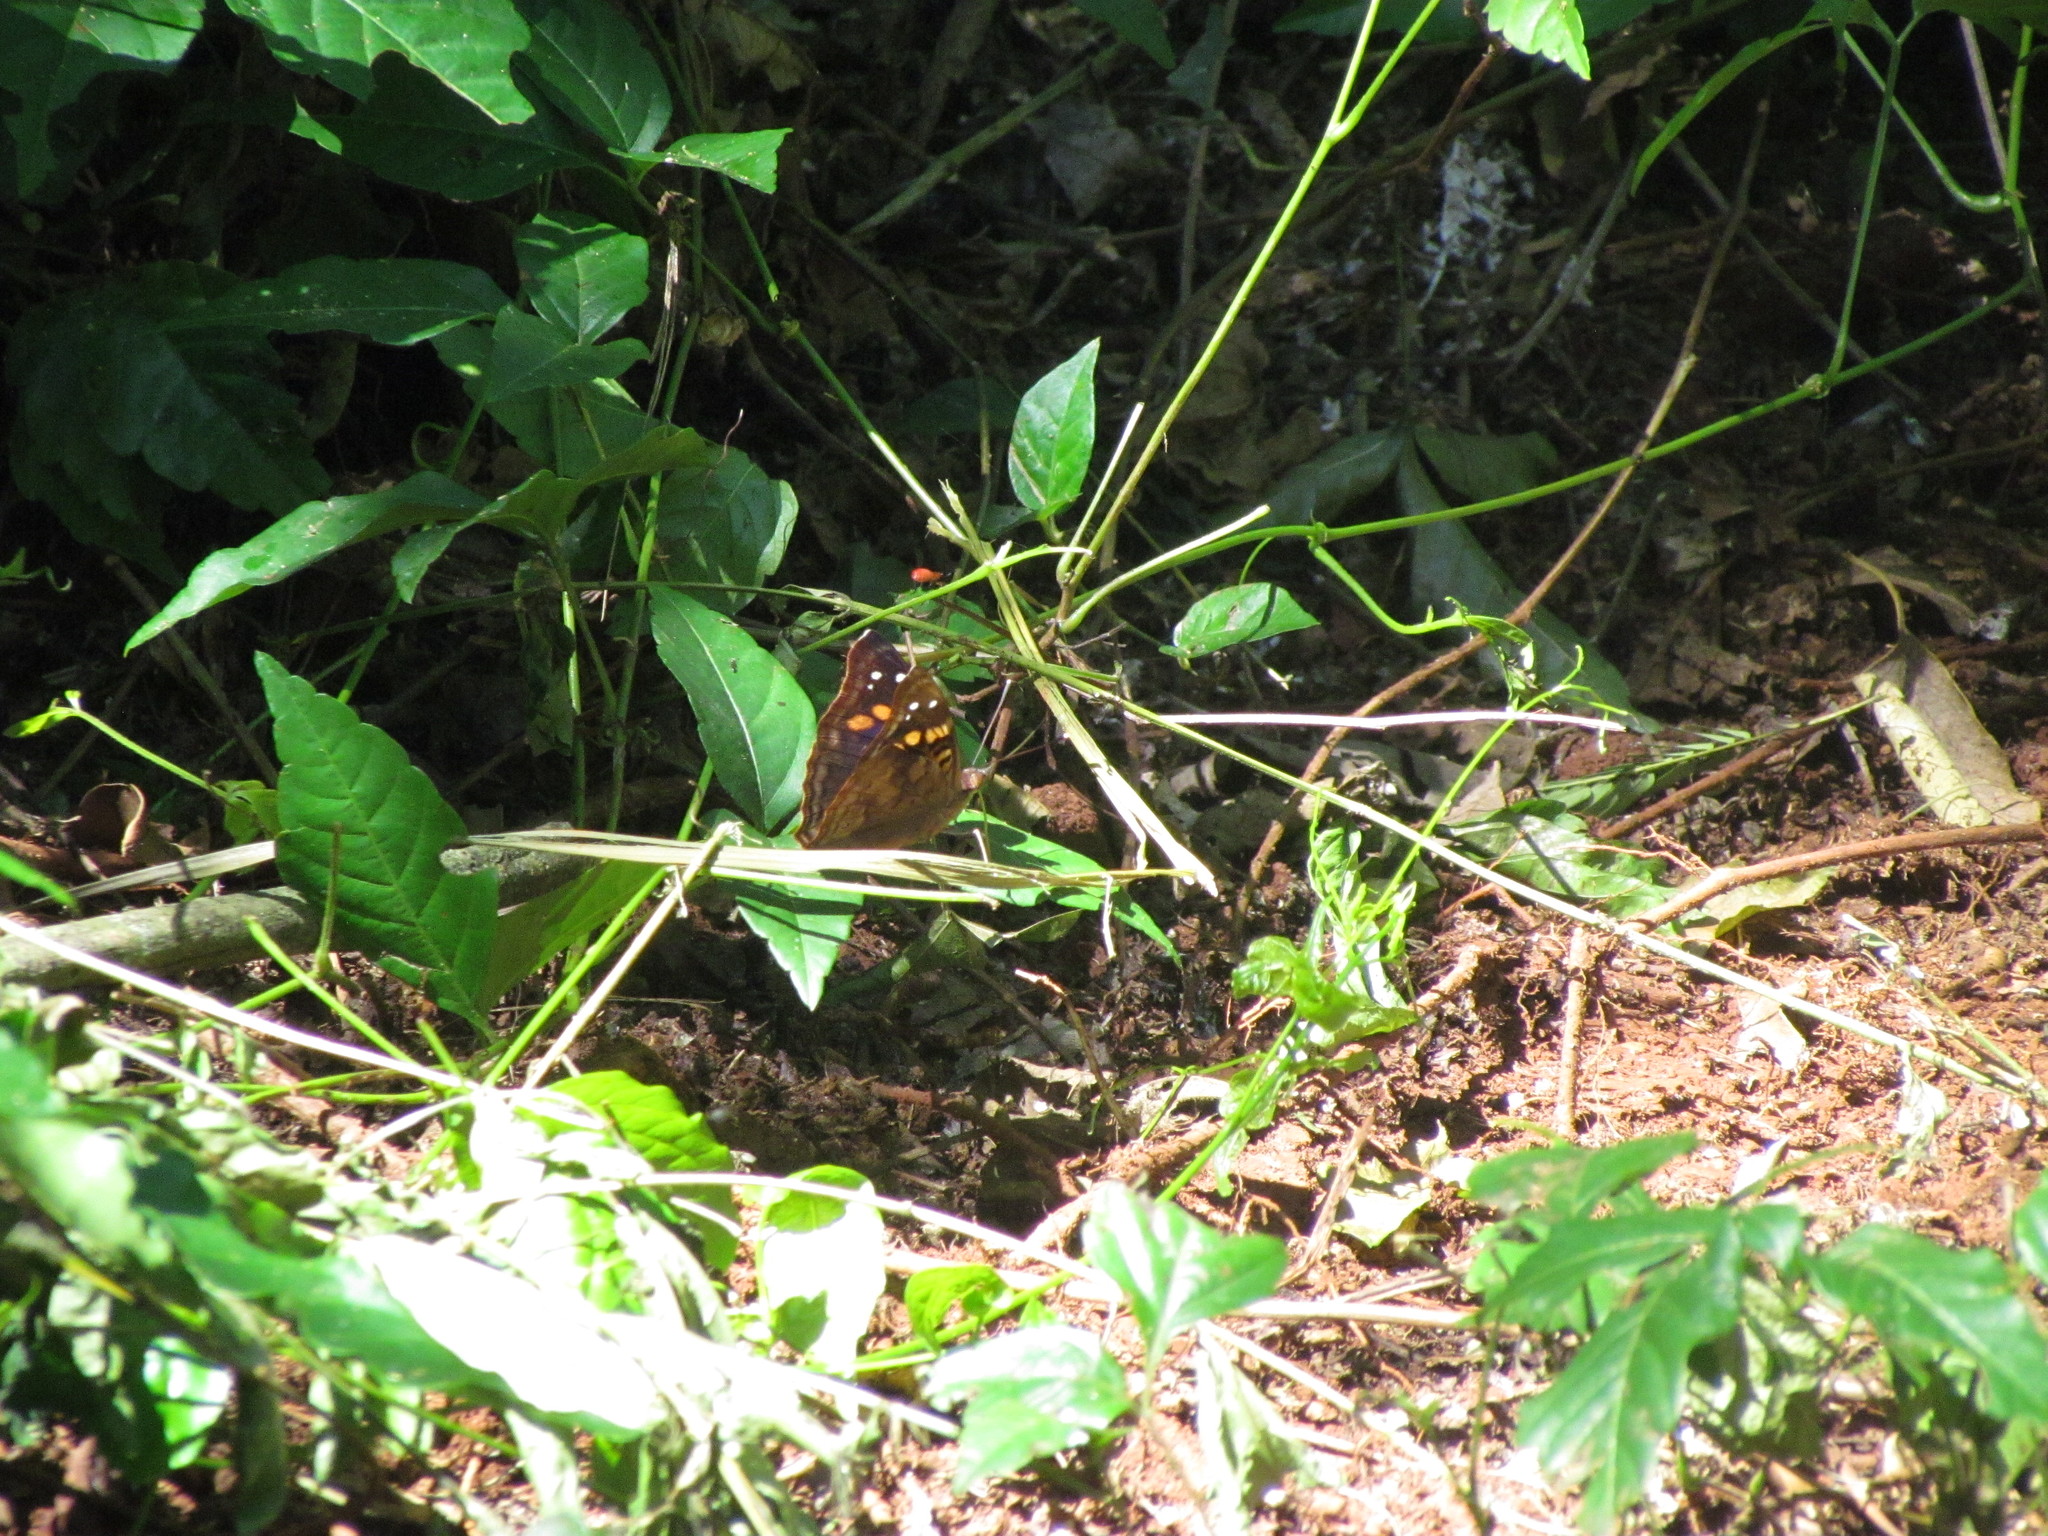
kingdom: Animalia
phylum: Arthropoda
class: Insecta
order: Lepidoptera
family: Nymphalidae
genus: Doxocopa
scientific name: Doxocopa agathina
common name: Agathina emperor
